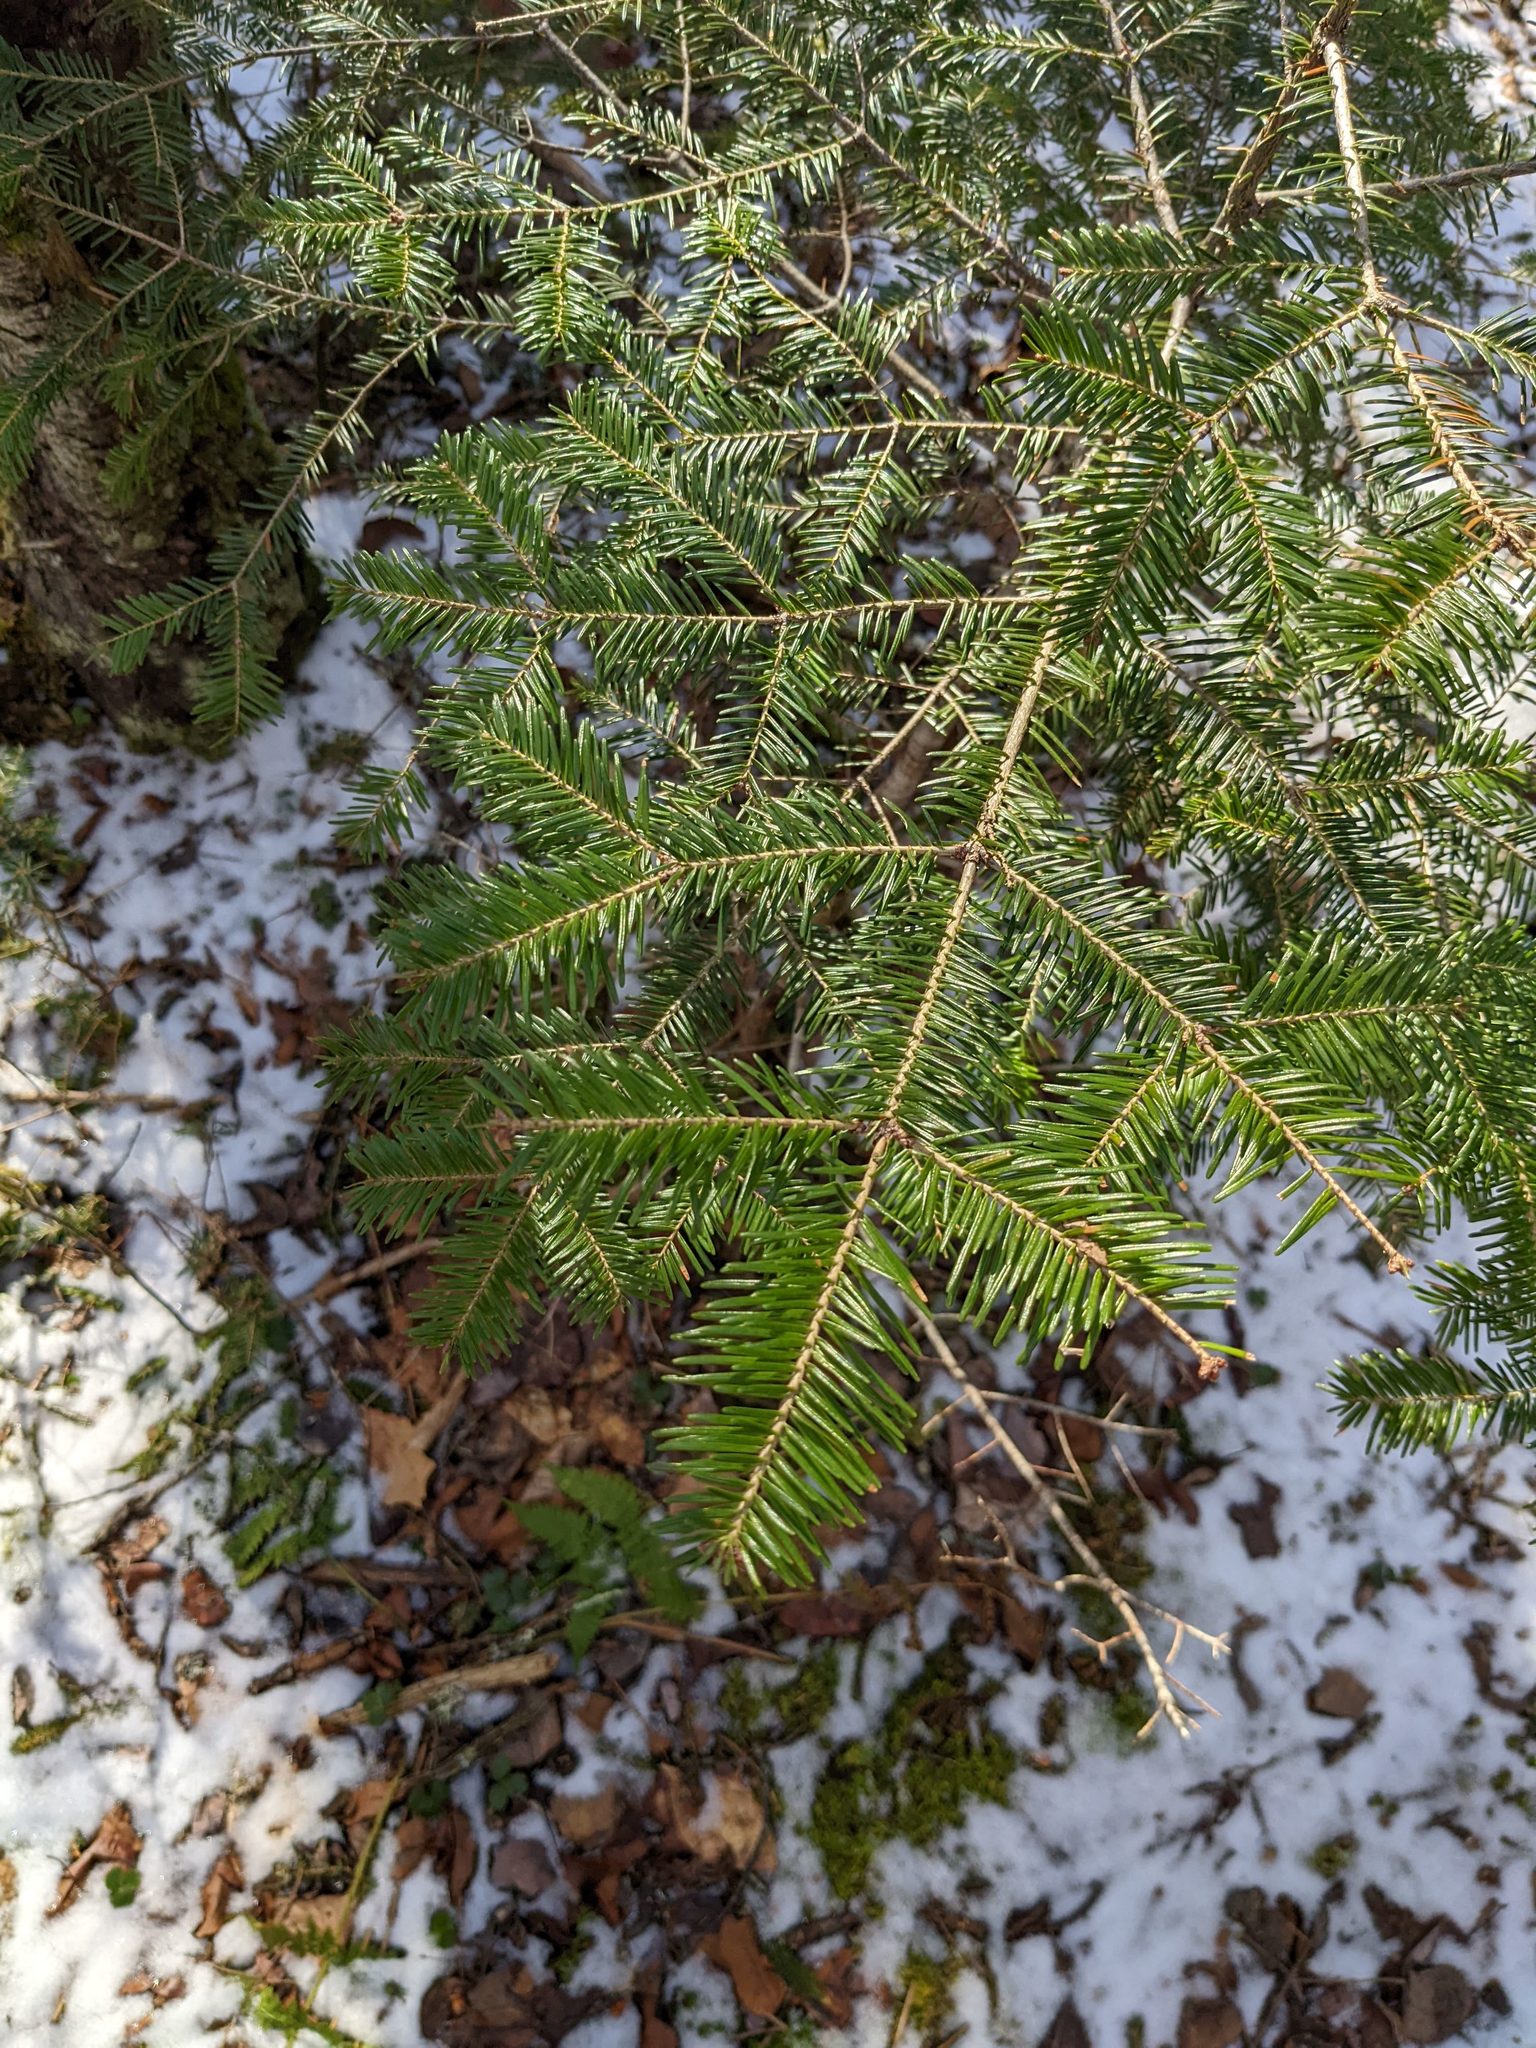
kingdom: Plantae
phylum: Tracheophyta
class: Pinopsida
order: Pinales
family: Pinaceae
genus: Abies
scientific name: Abies balsamea
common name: Balsam fir
